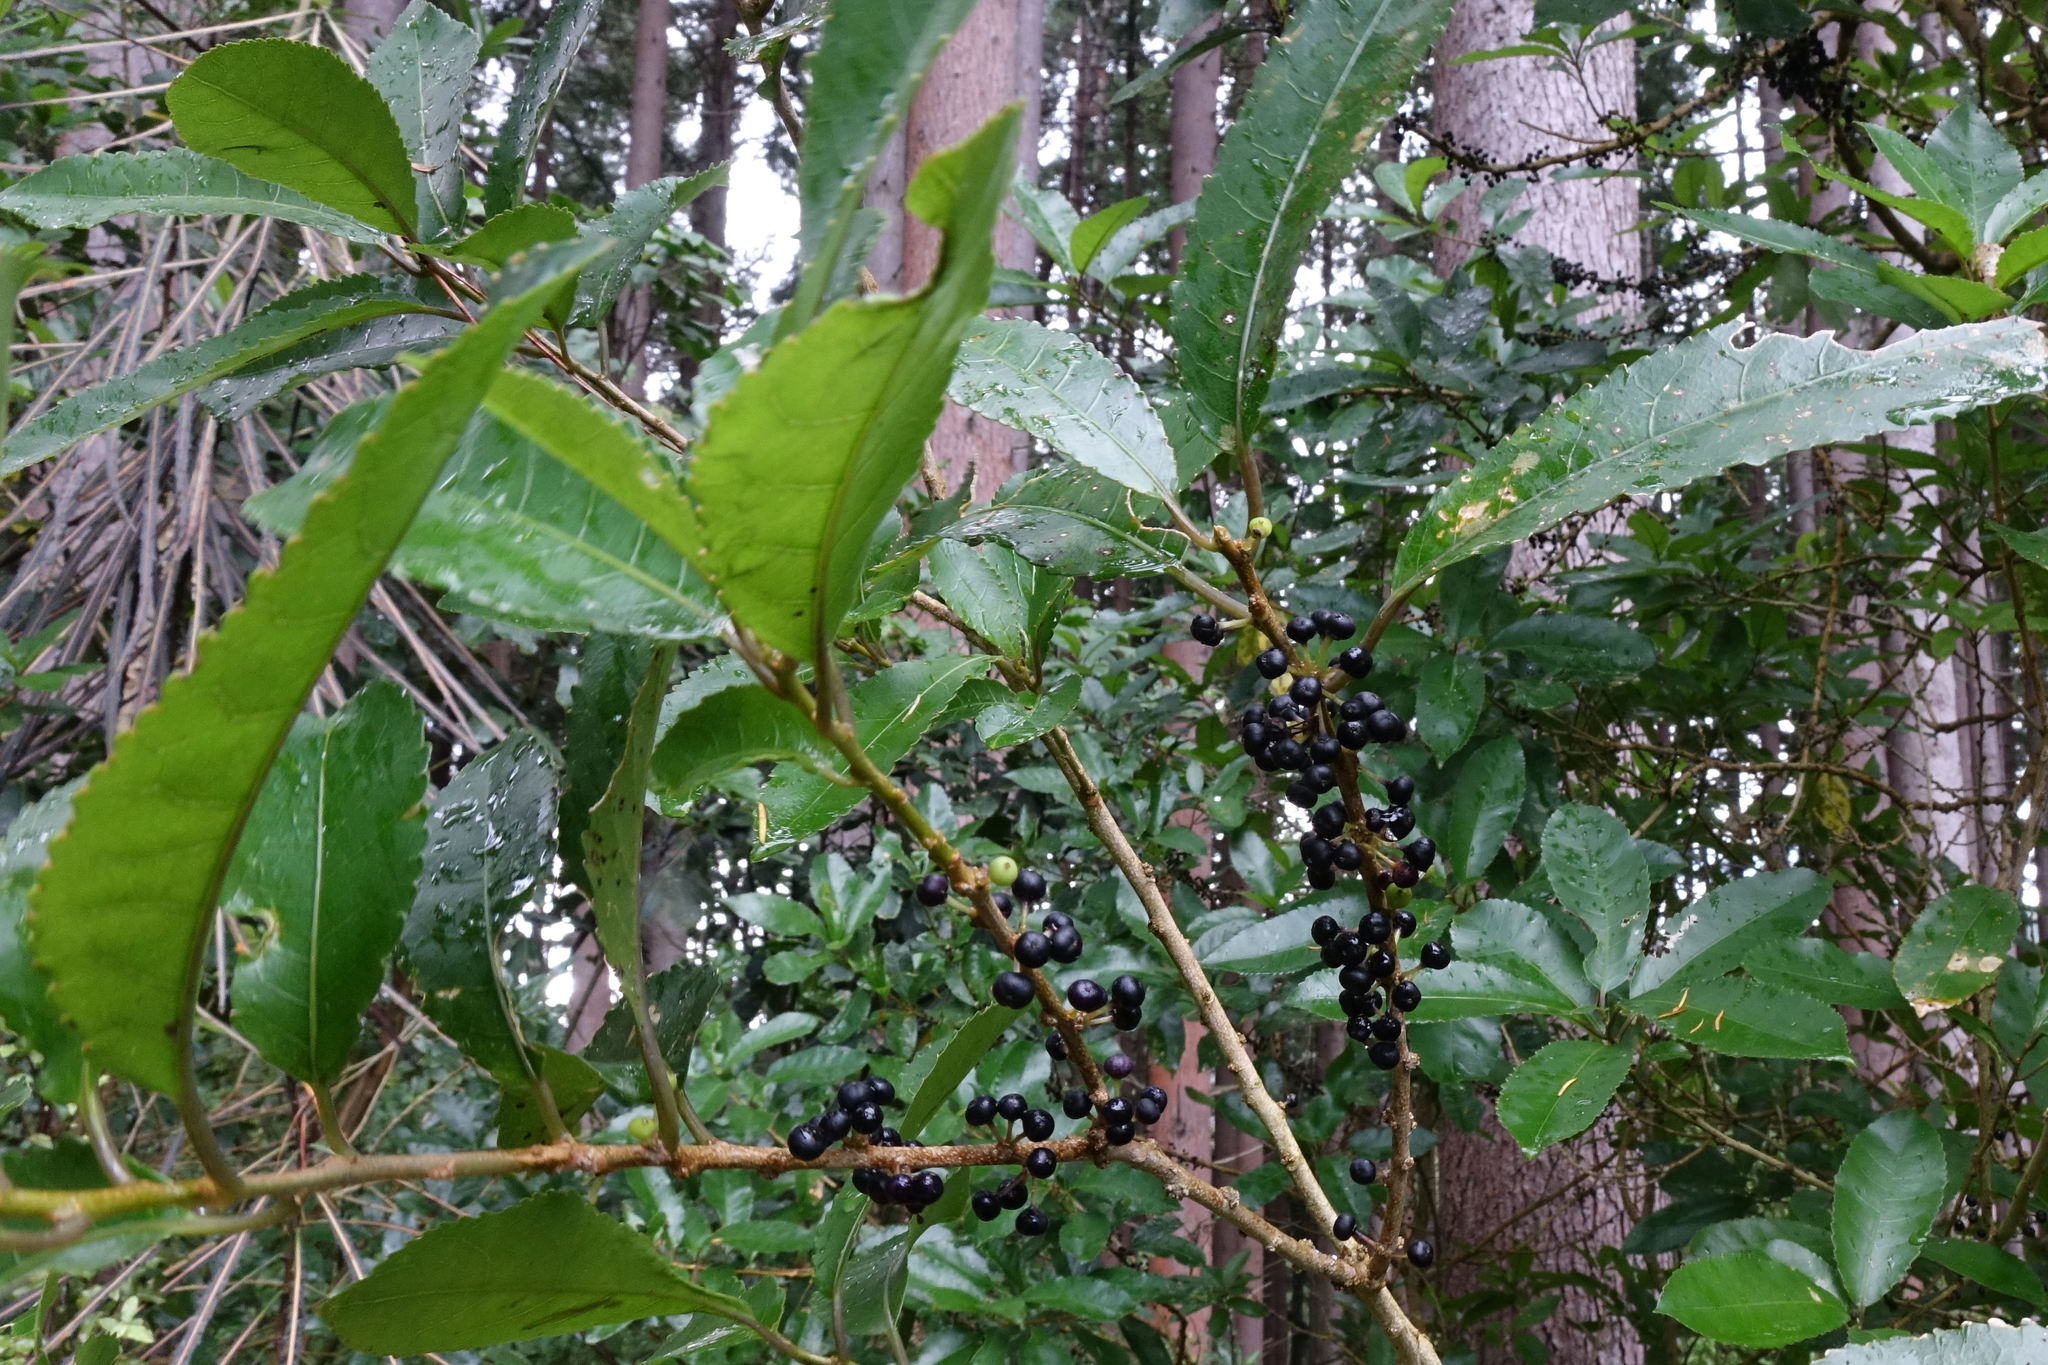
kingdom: Plantae
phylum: Tracheophyta
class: Magnoliopsida
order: Malpighiales
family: Violaceae
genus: Melicytus
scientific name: Melicytus ramiflorus
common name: Mahoe
